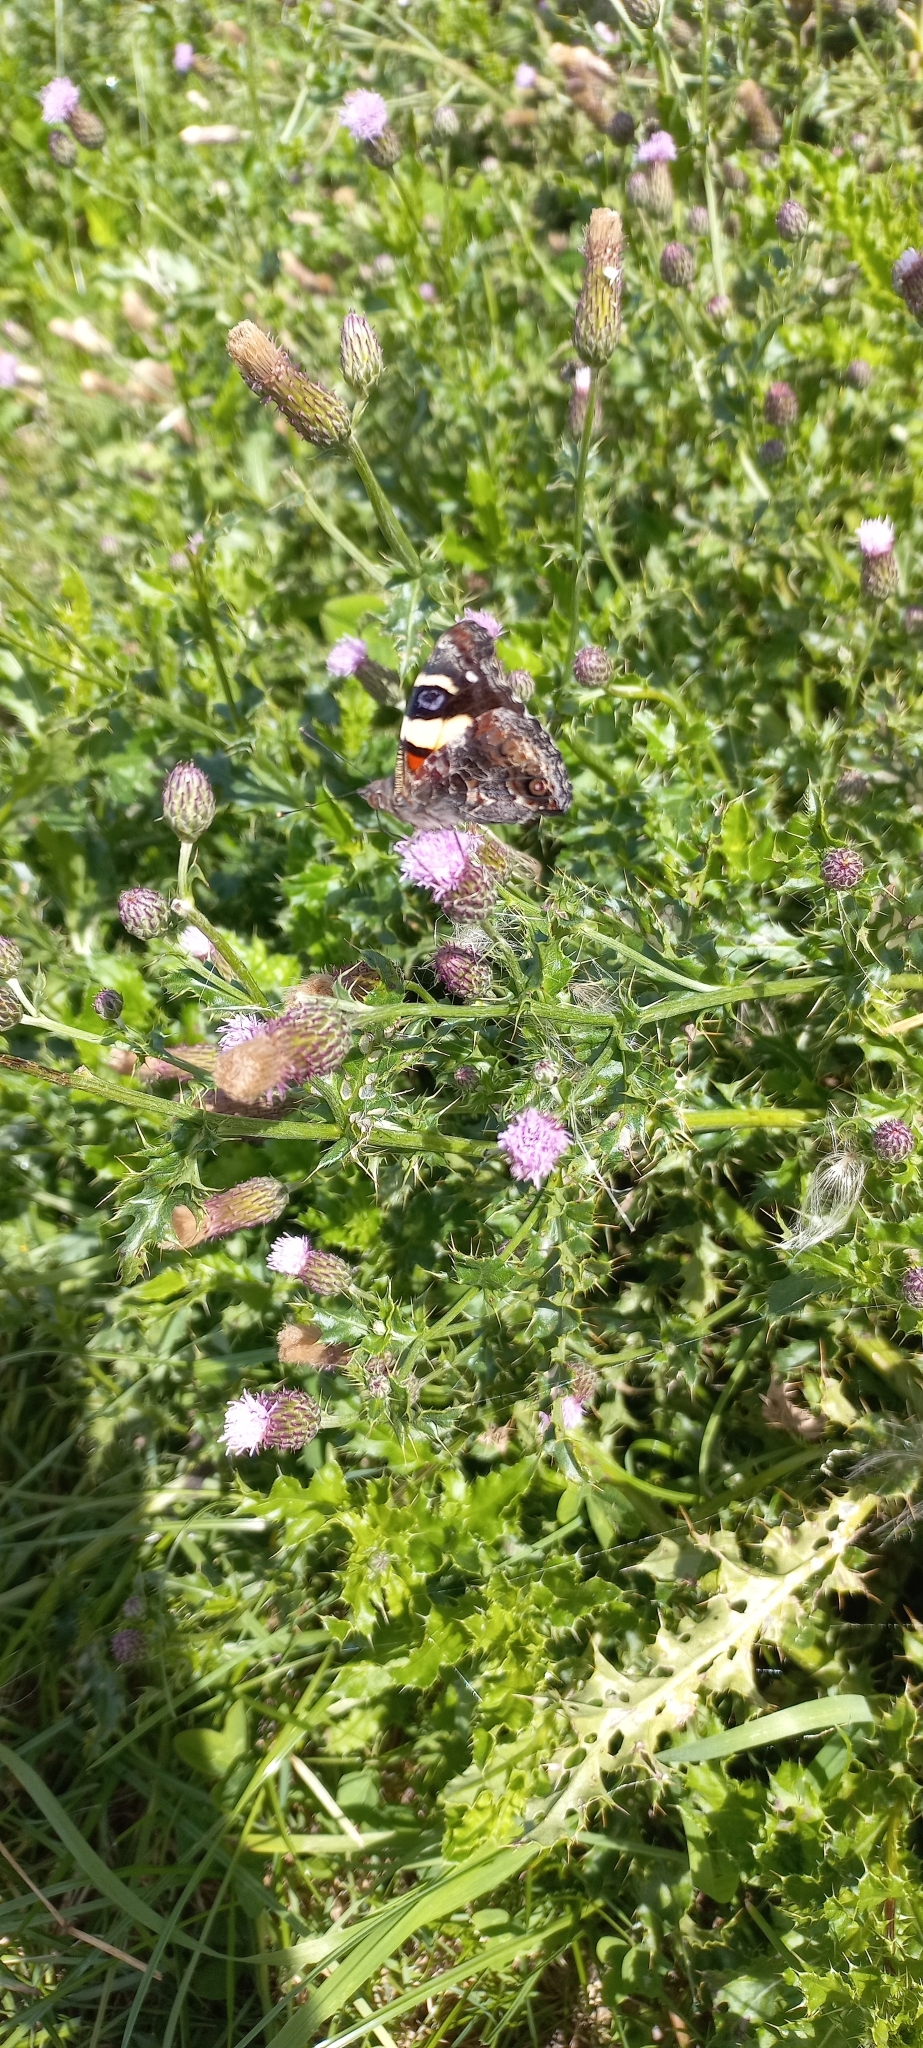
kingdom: Animalia
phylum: Arthropoda
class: Insecta
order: Lepidoptera
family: Nymphalidae
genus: Vanessa
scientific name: Vanessa itea
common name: Yellow admiral
